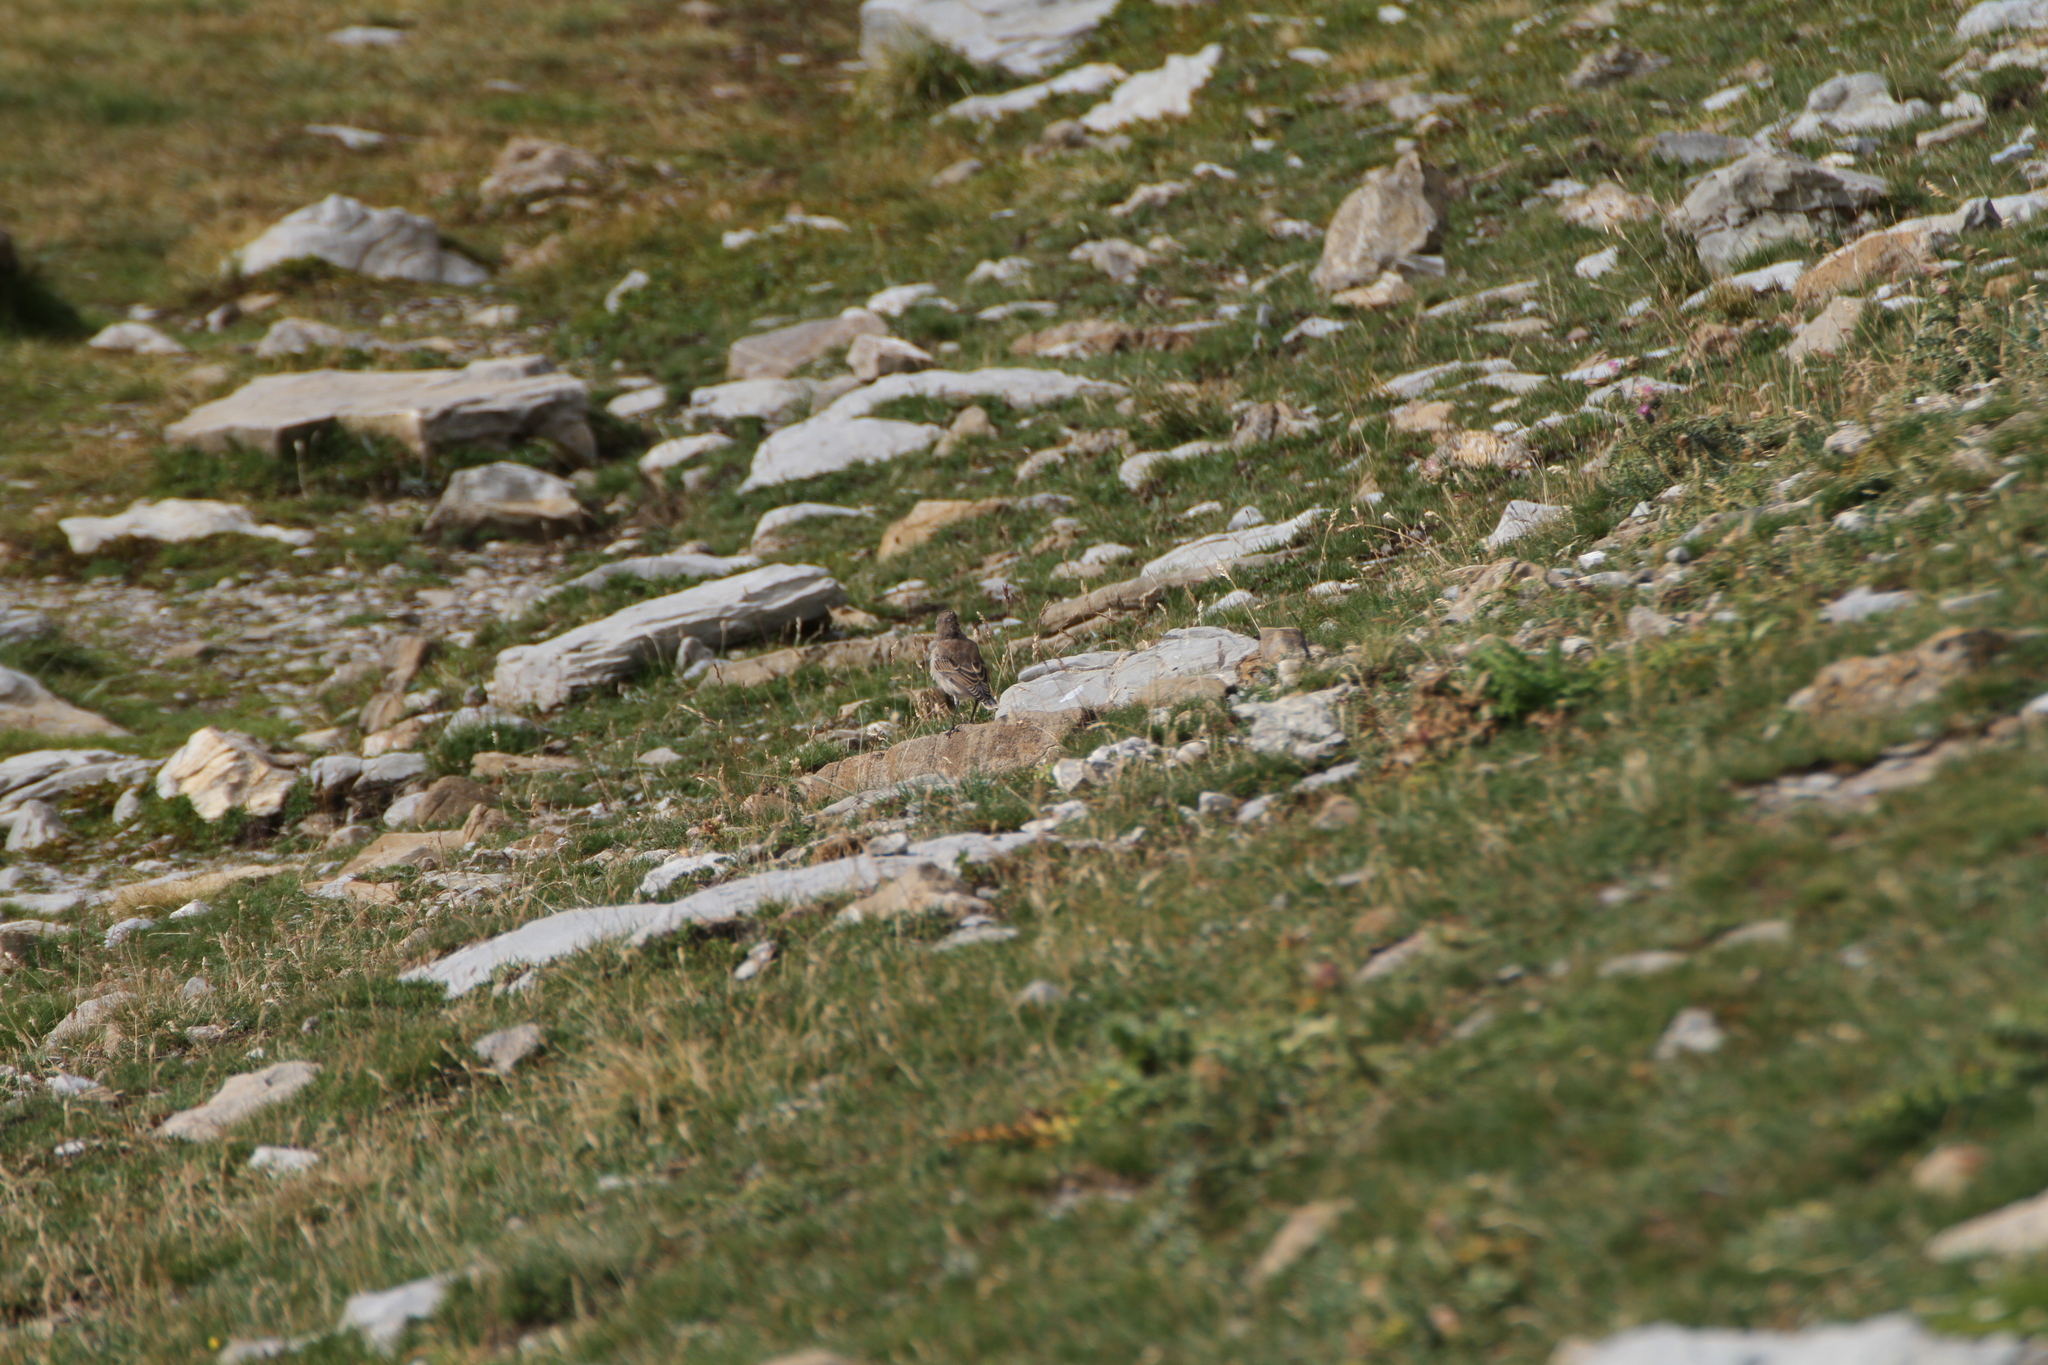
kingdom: Animalia
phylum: Chordata
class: Aves
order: Passeriformes
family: Muscicapidae
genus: Oenanthe
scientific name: Oenanthe oenanthe
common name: Northern wheatear
